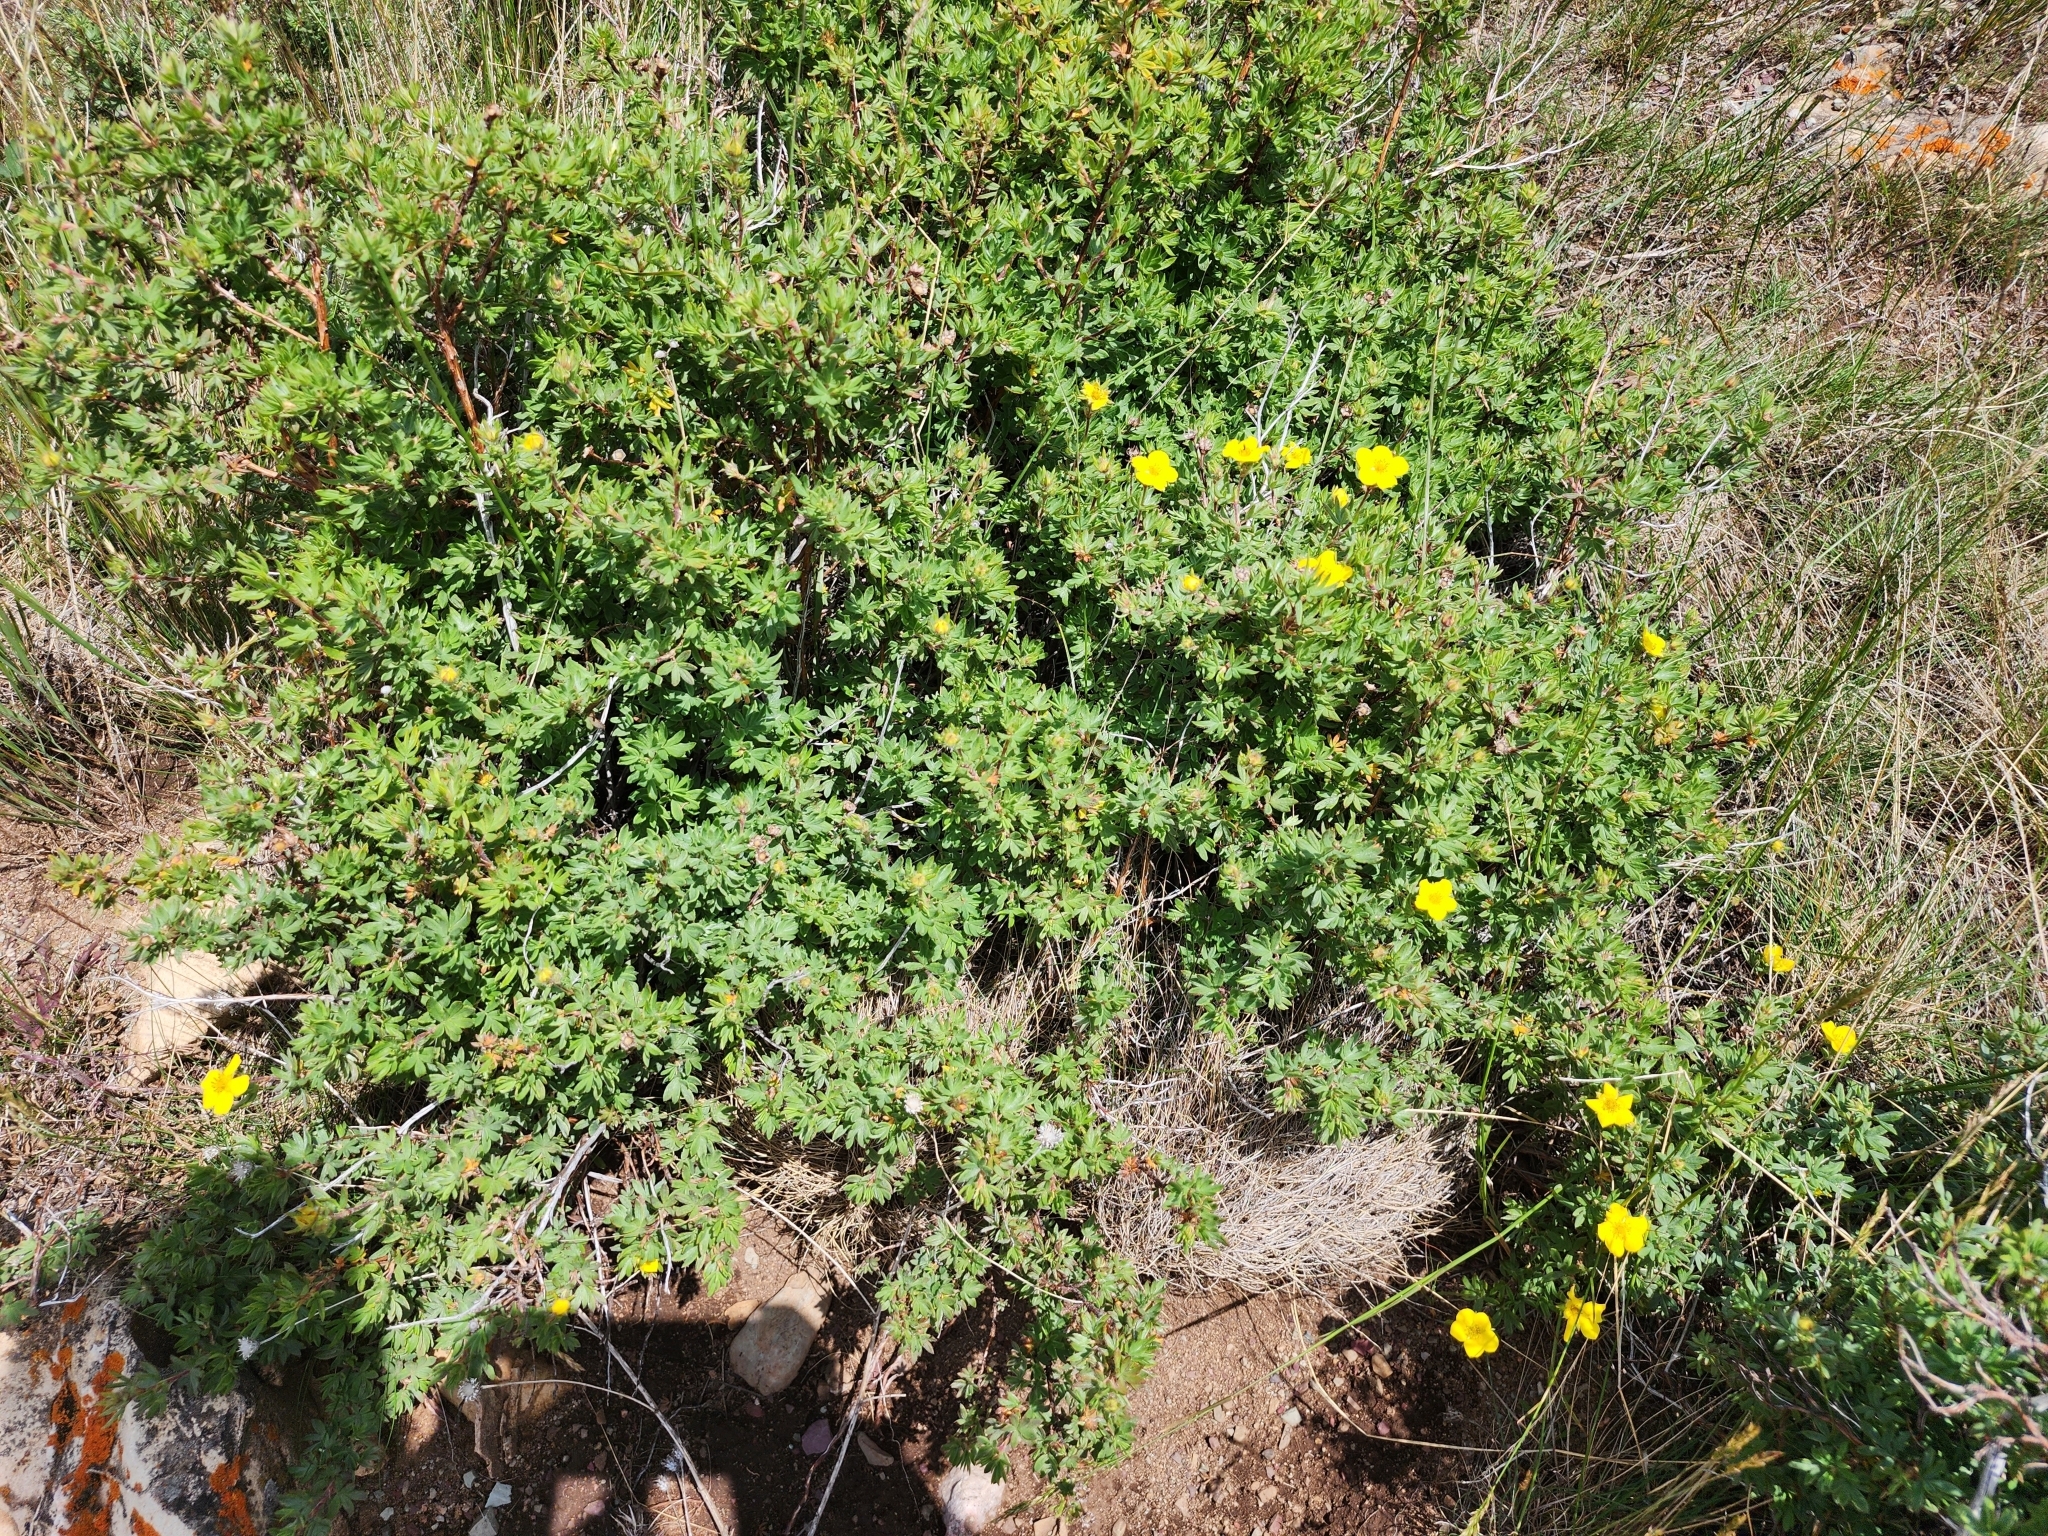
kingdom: Plantae
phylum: Tracheophyta
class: Magnoliopsida
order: Rosales
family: Rosaceae
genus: Dasiphora
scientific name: Dasiphora fruticosa
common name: Shrubby cinquefoil
